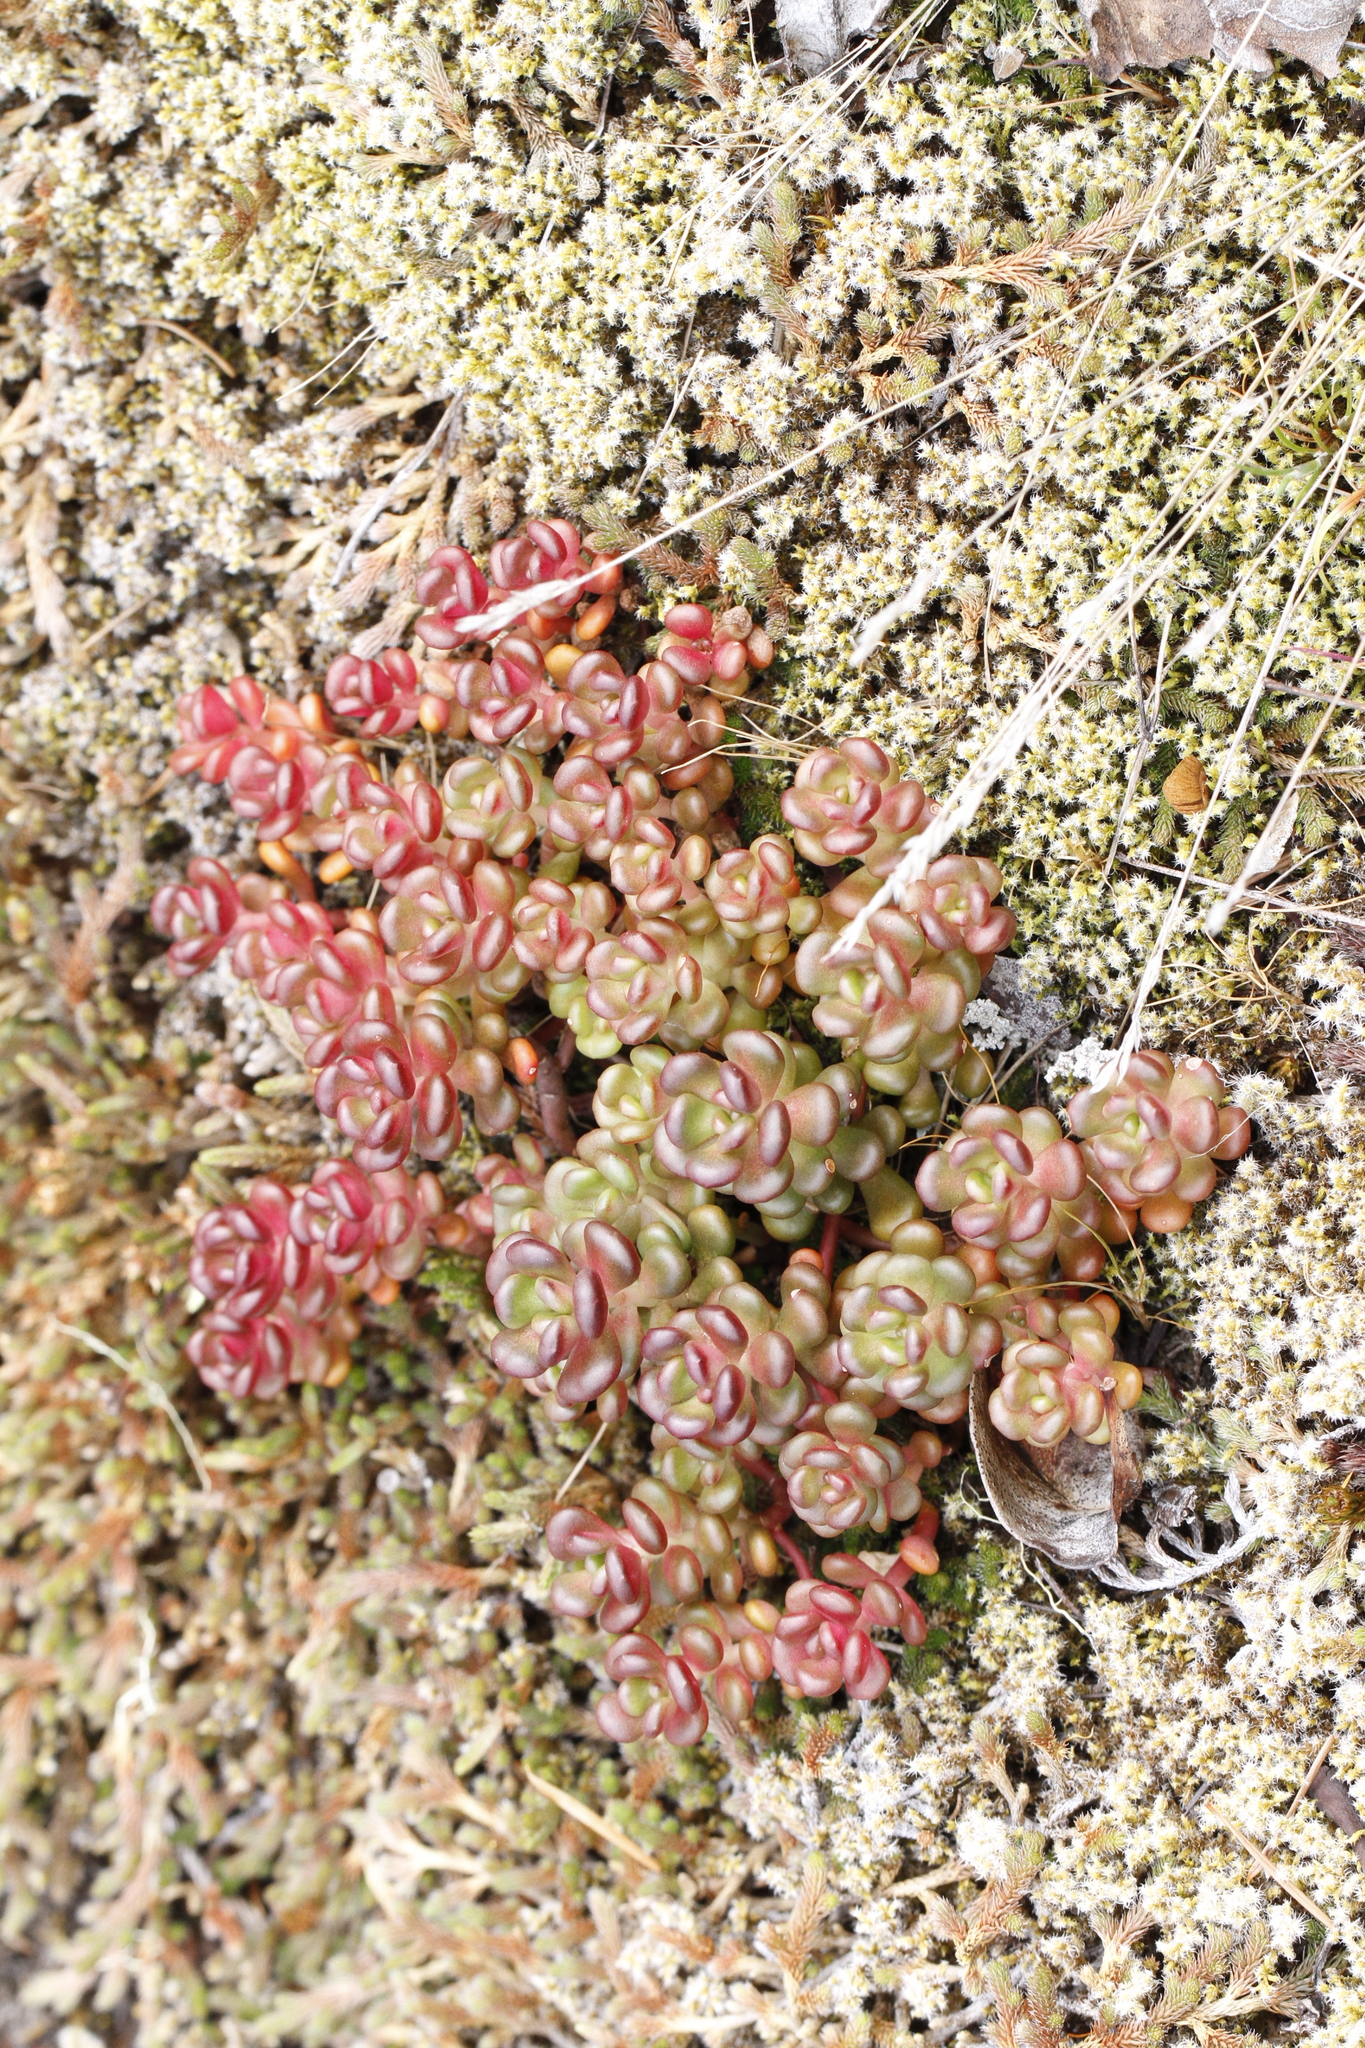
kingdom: Plantae
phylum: Tracheophyta
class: Magnoliopsida
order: Saxifragales
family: Crassulaceae
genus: Sedum
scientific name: Sedum oreganum
